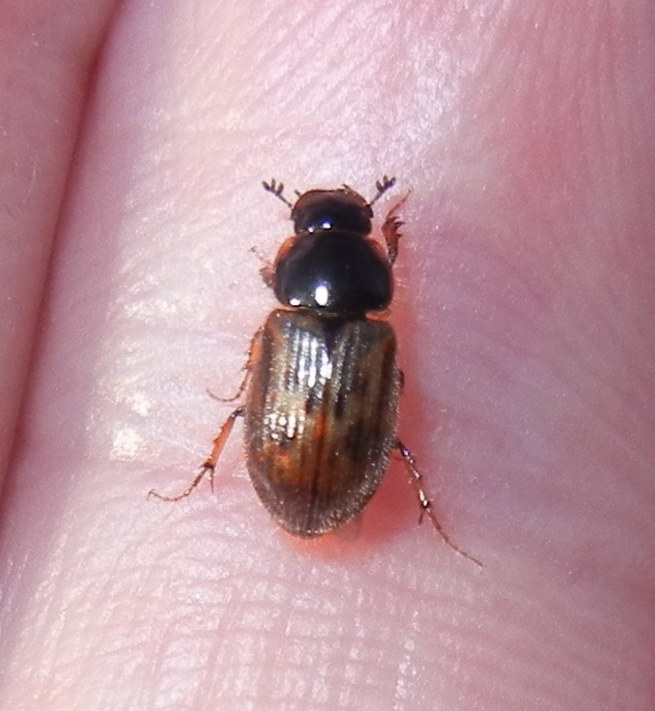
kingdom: Animalia
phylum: Arthropoda
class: Insecta
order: Coleoptera
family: Scarabaeidae
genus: Nimbus
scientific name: Nimbus contaminatus
